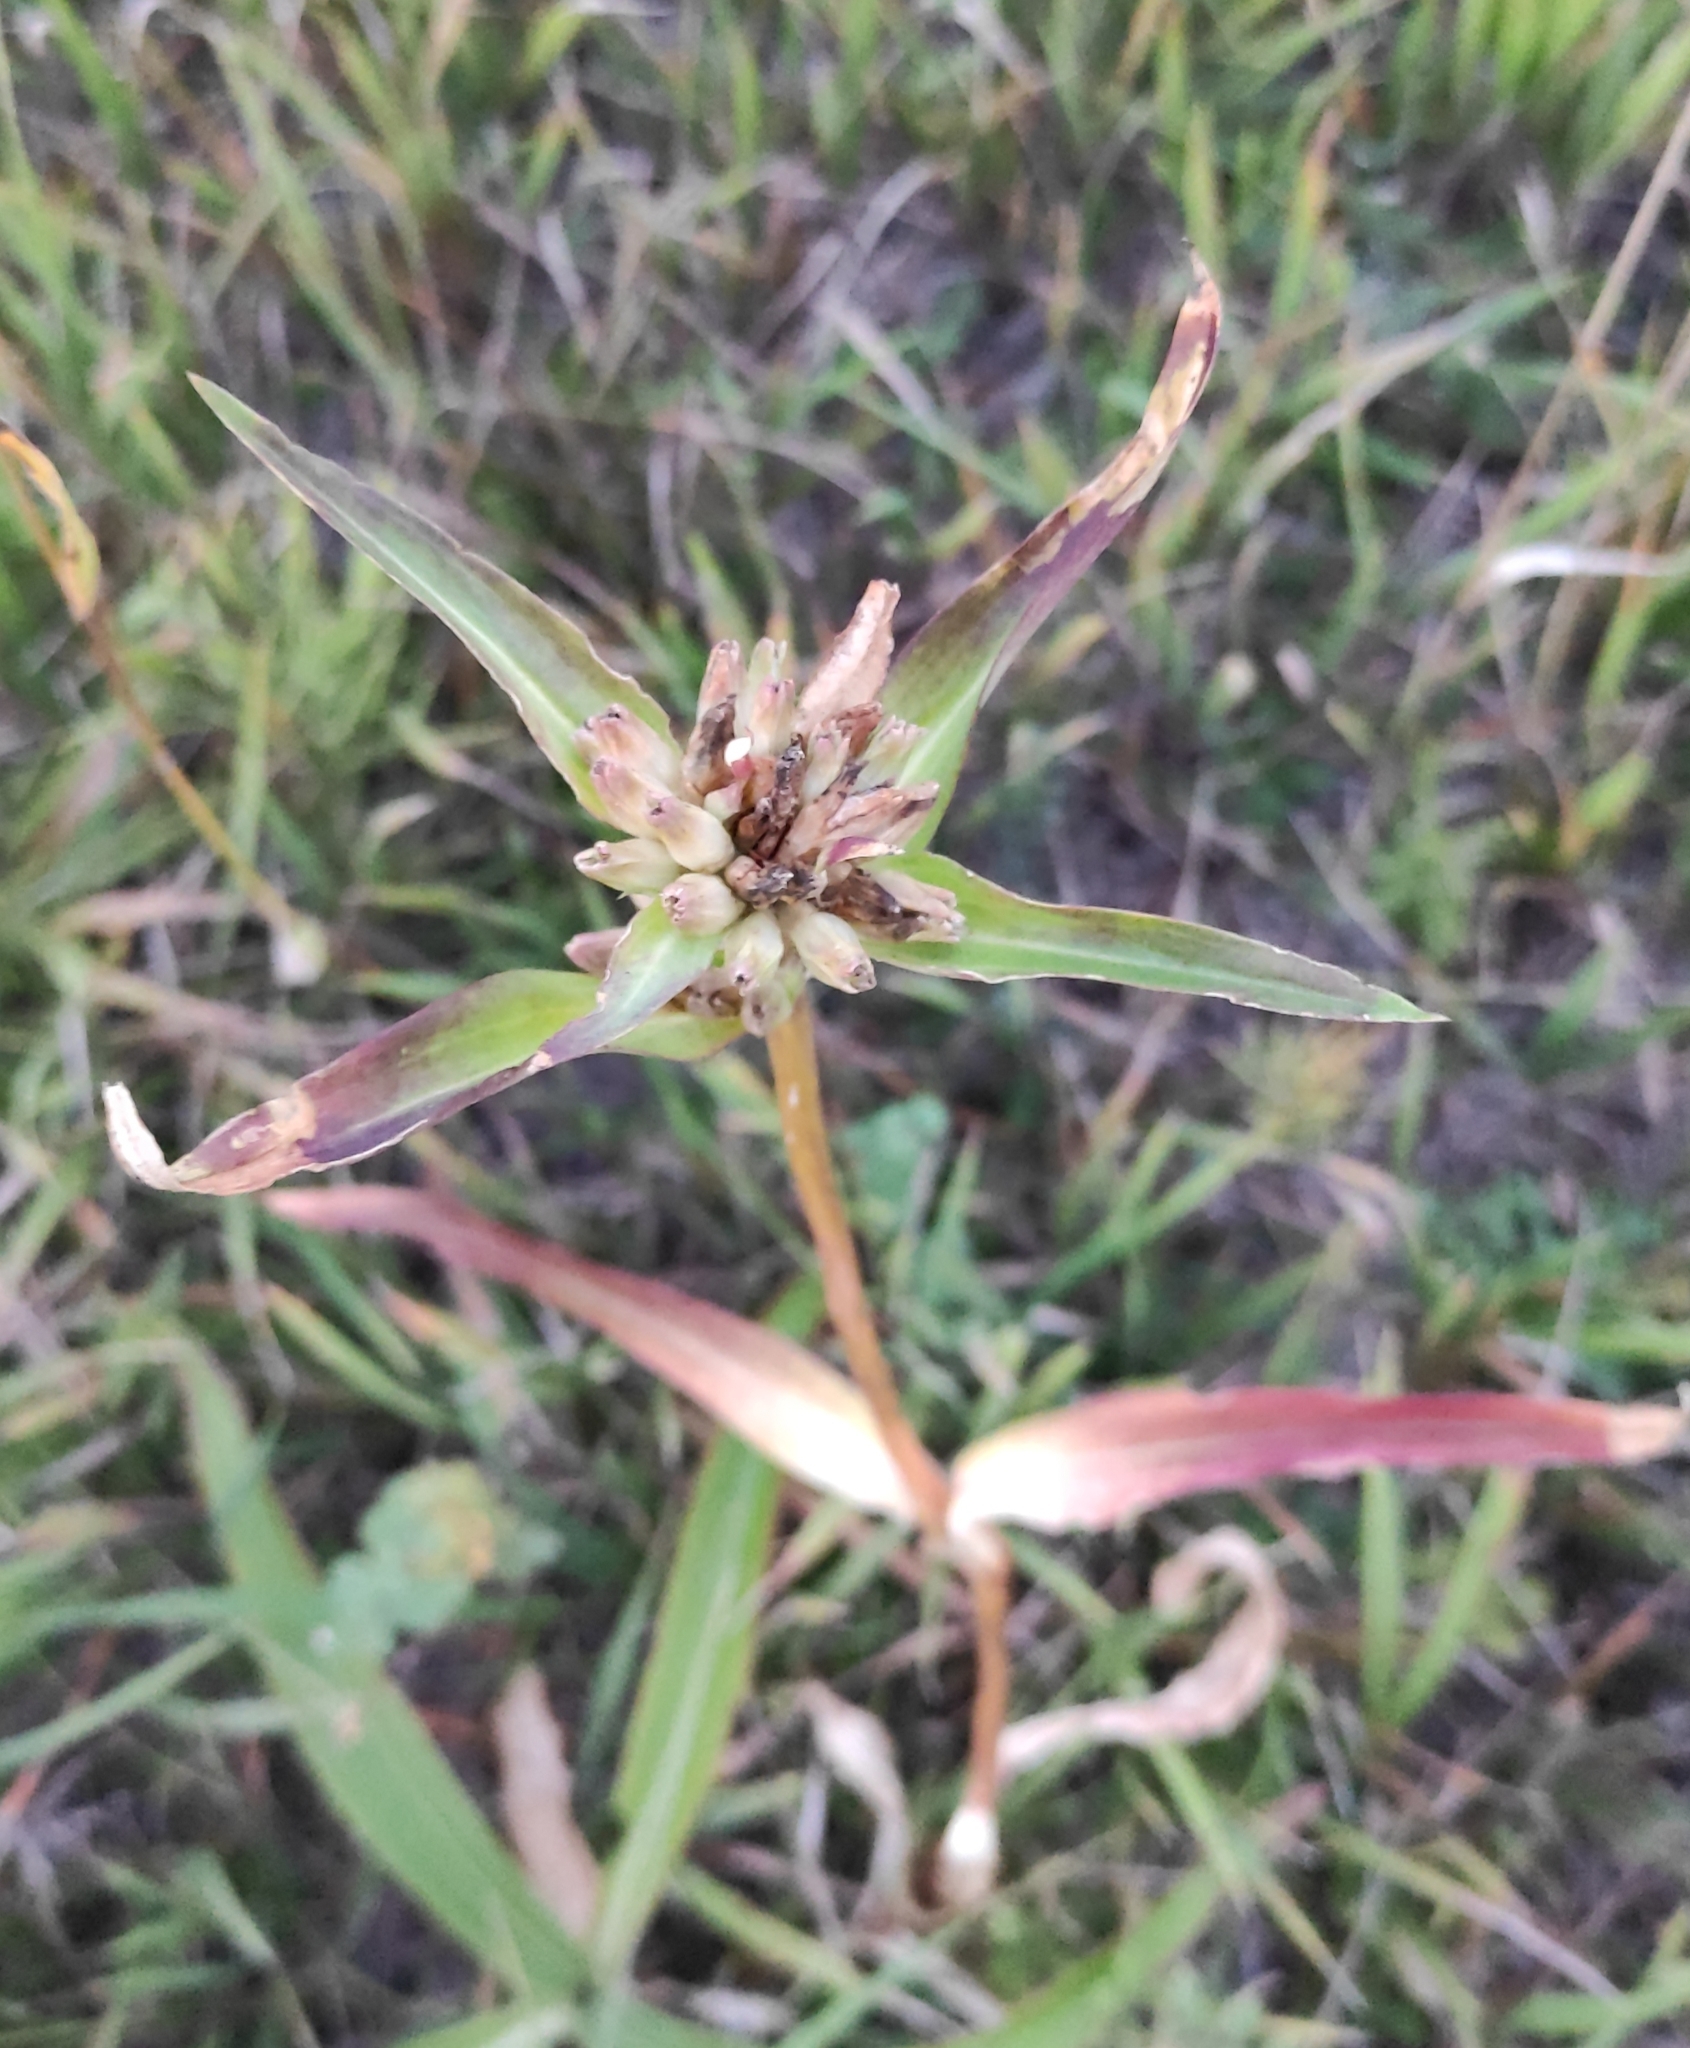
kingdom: Plantae
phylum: Tracheophyta
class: Magnoliopsida
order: Gentianales
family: Gentianaceae
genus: Gentiana
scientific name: Gentiana macrophylla
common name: Large-leaf gentian
